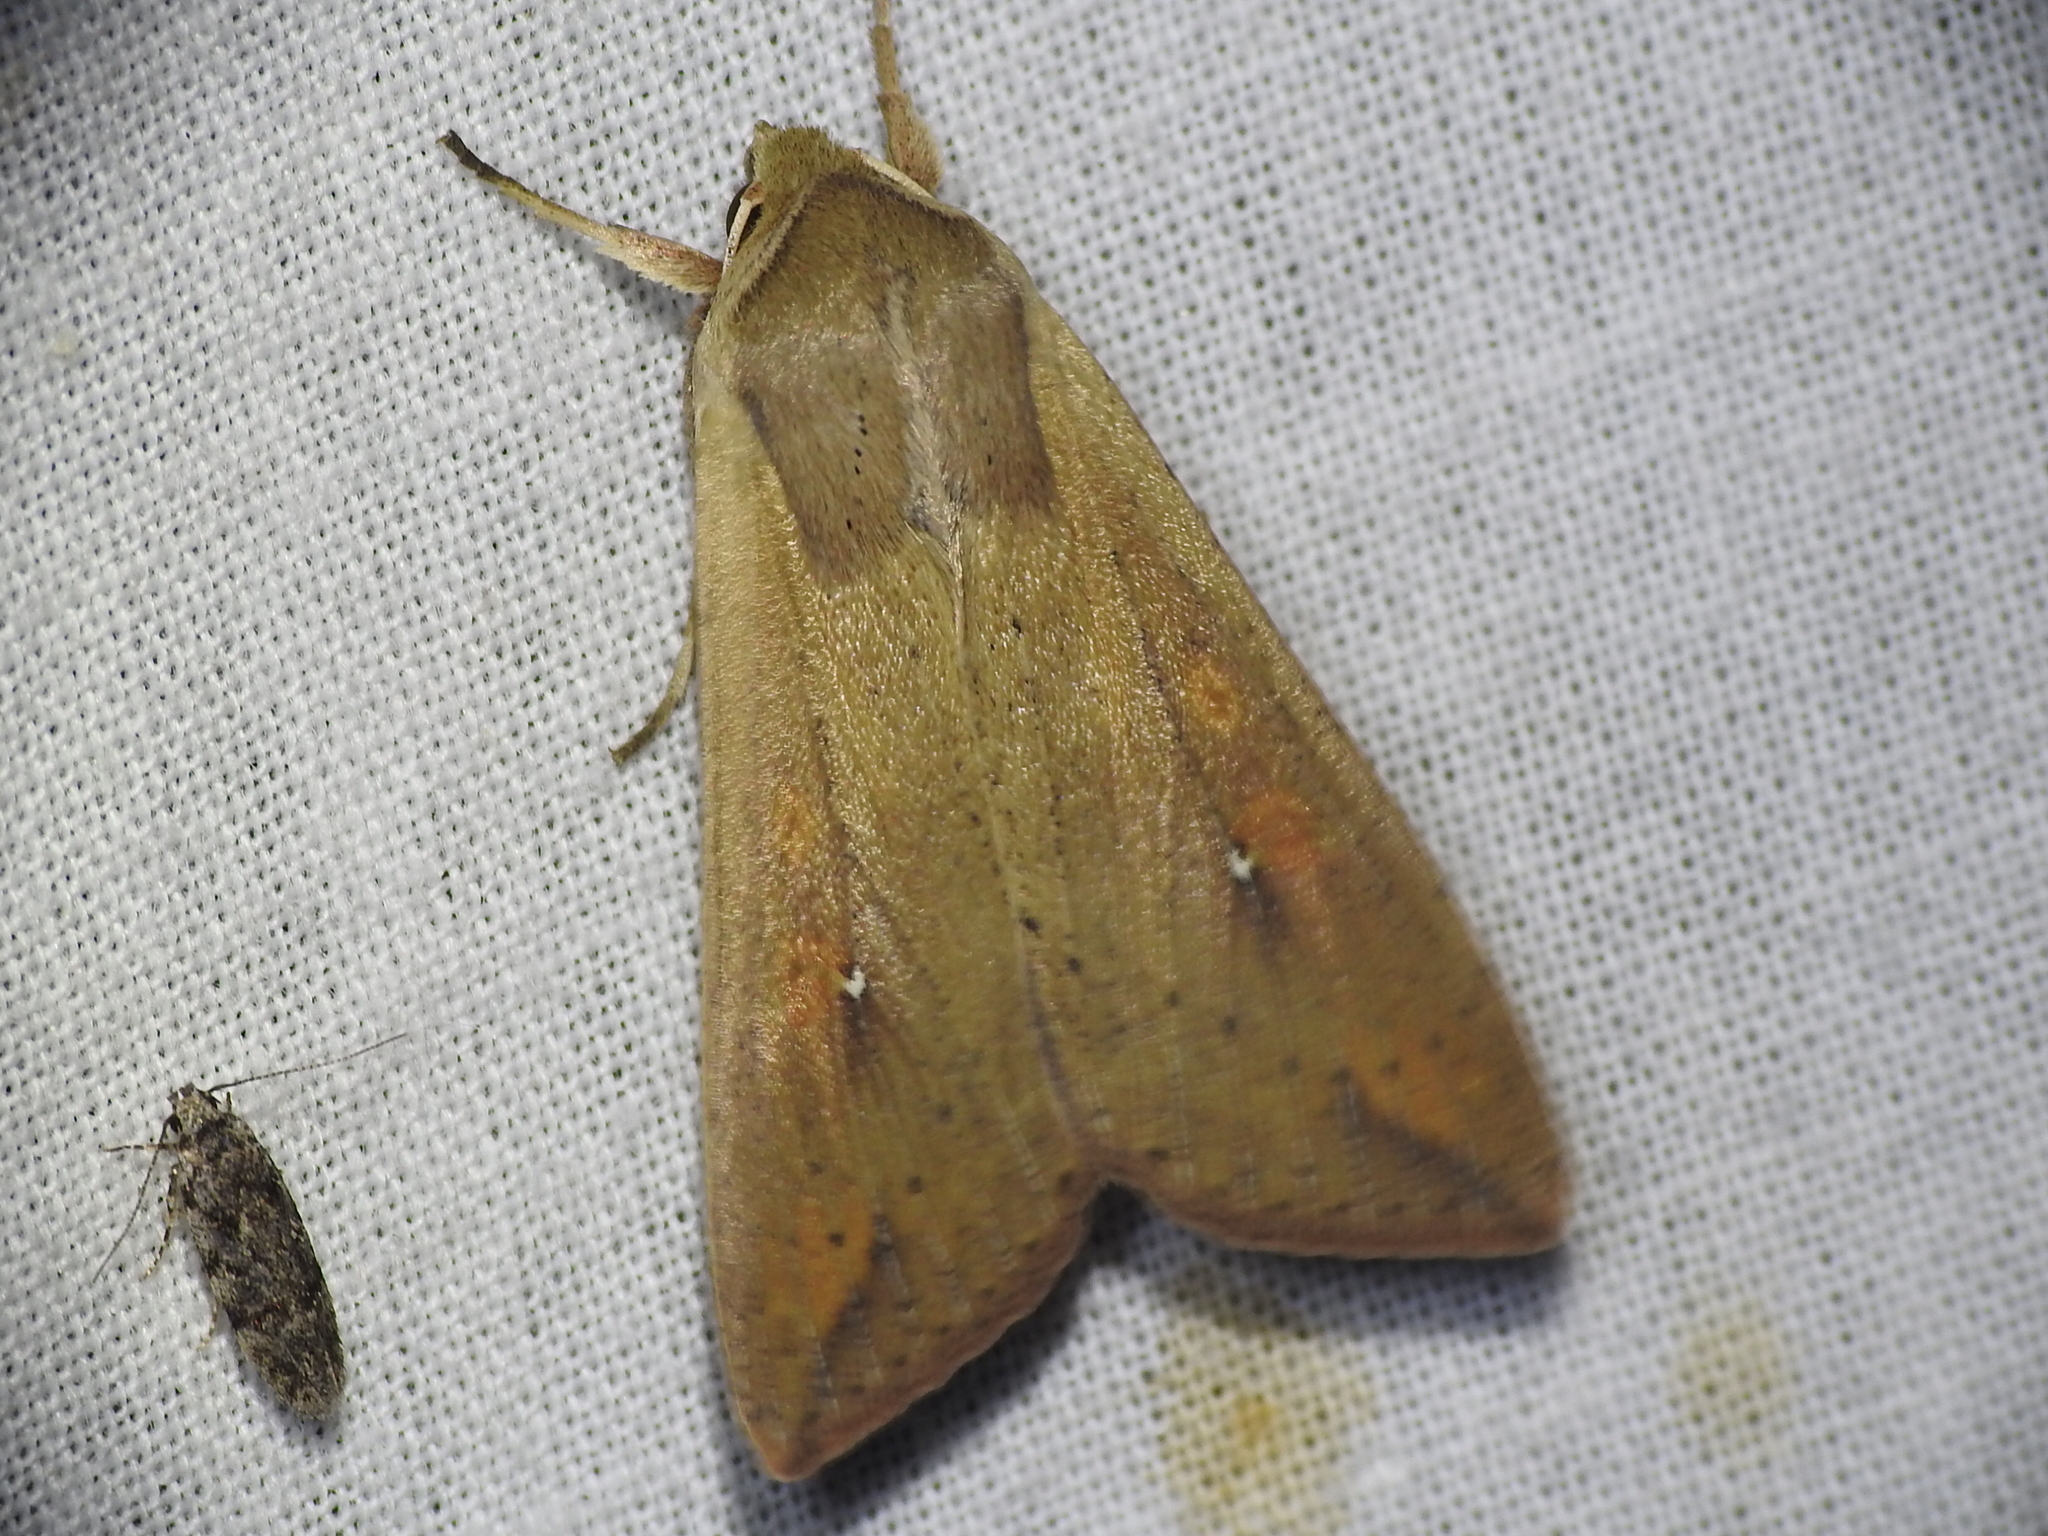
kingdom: Animalia
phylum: Arthropoda
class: Insecta
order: Lepidoptera
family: Noctuidae
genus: Mythimna
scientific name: Mythimna unipuncta
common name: White-speck
